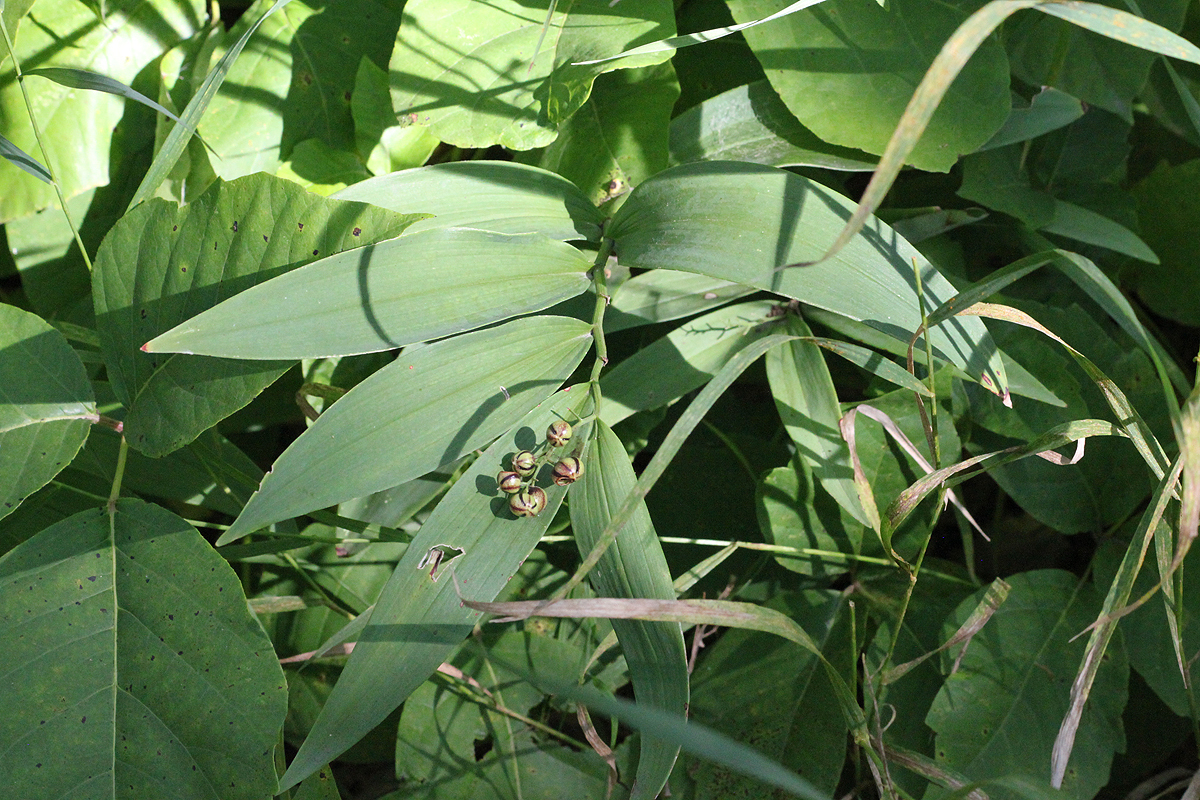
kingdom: Plantae
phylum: Tracheophyta
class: Liliopsida
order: Asparagales
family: Asparagaceae
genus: Maianthemum
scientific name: Maianthemum stellatum
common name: Little false solomon's seal
